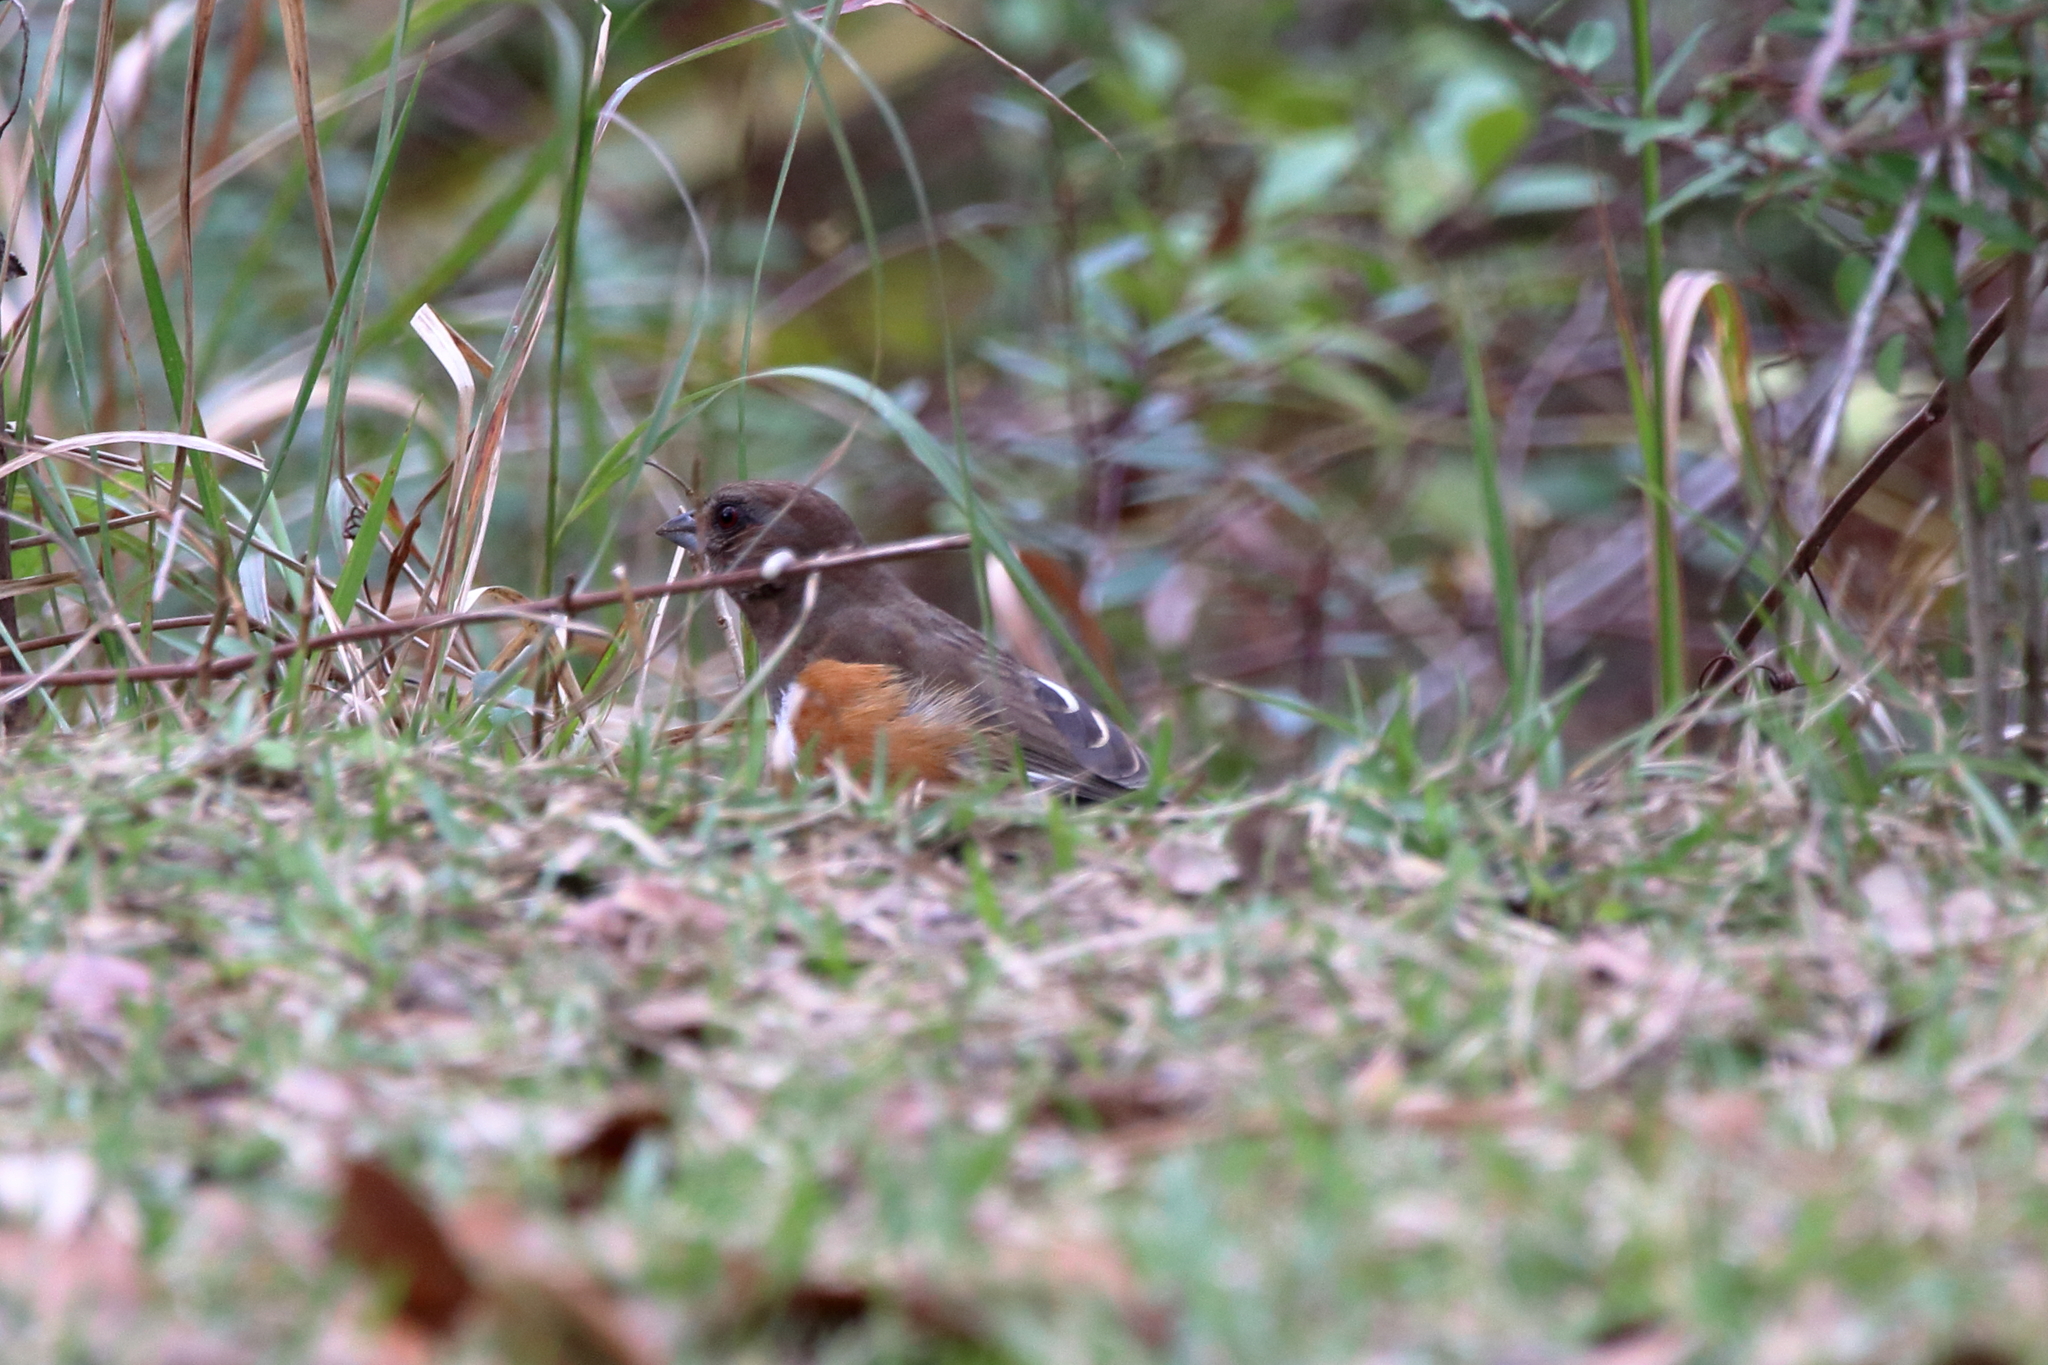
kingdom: Animalia
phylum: Chordata
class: Aves
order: Passeriformes
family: Passerellidae
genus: Pipilo
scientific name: Pipilo erythrophthalmus
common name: Eastern towhee
